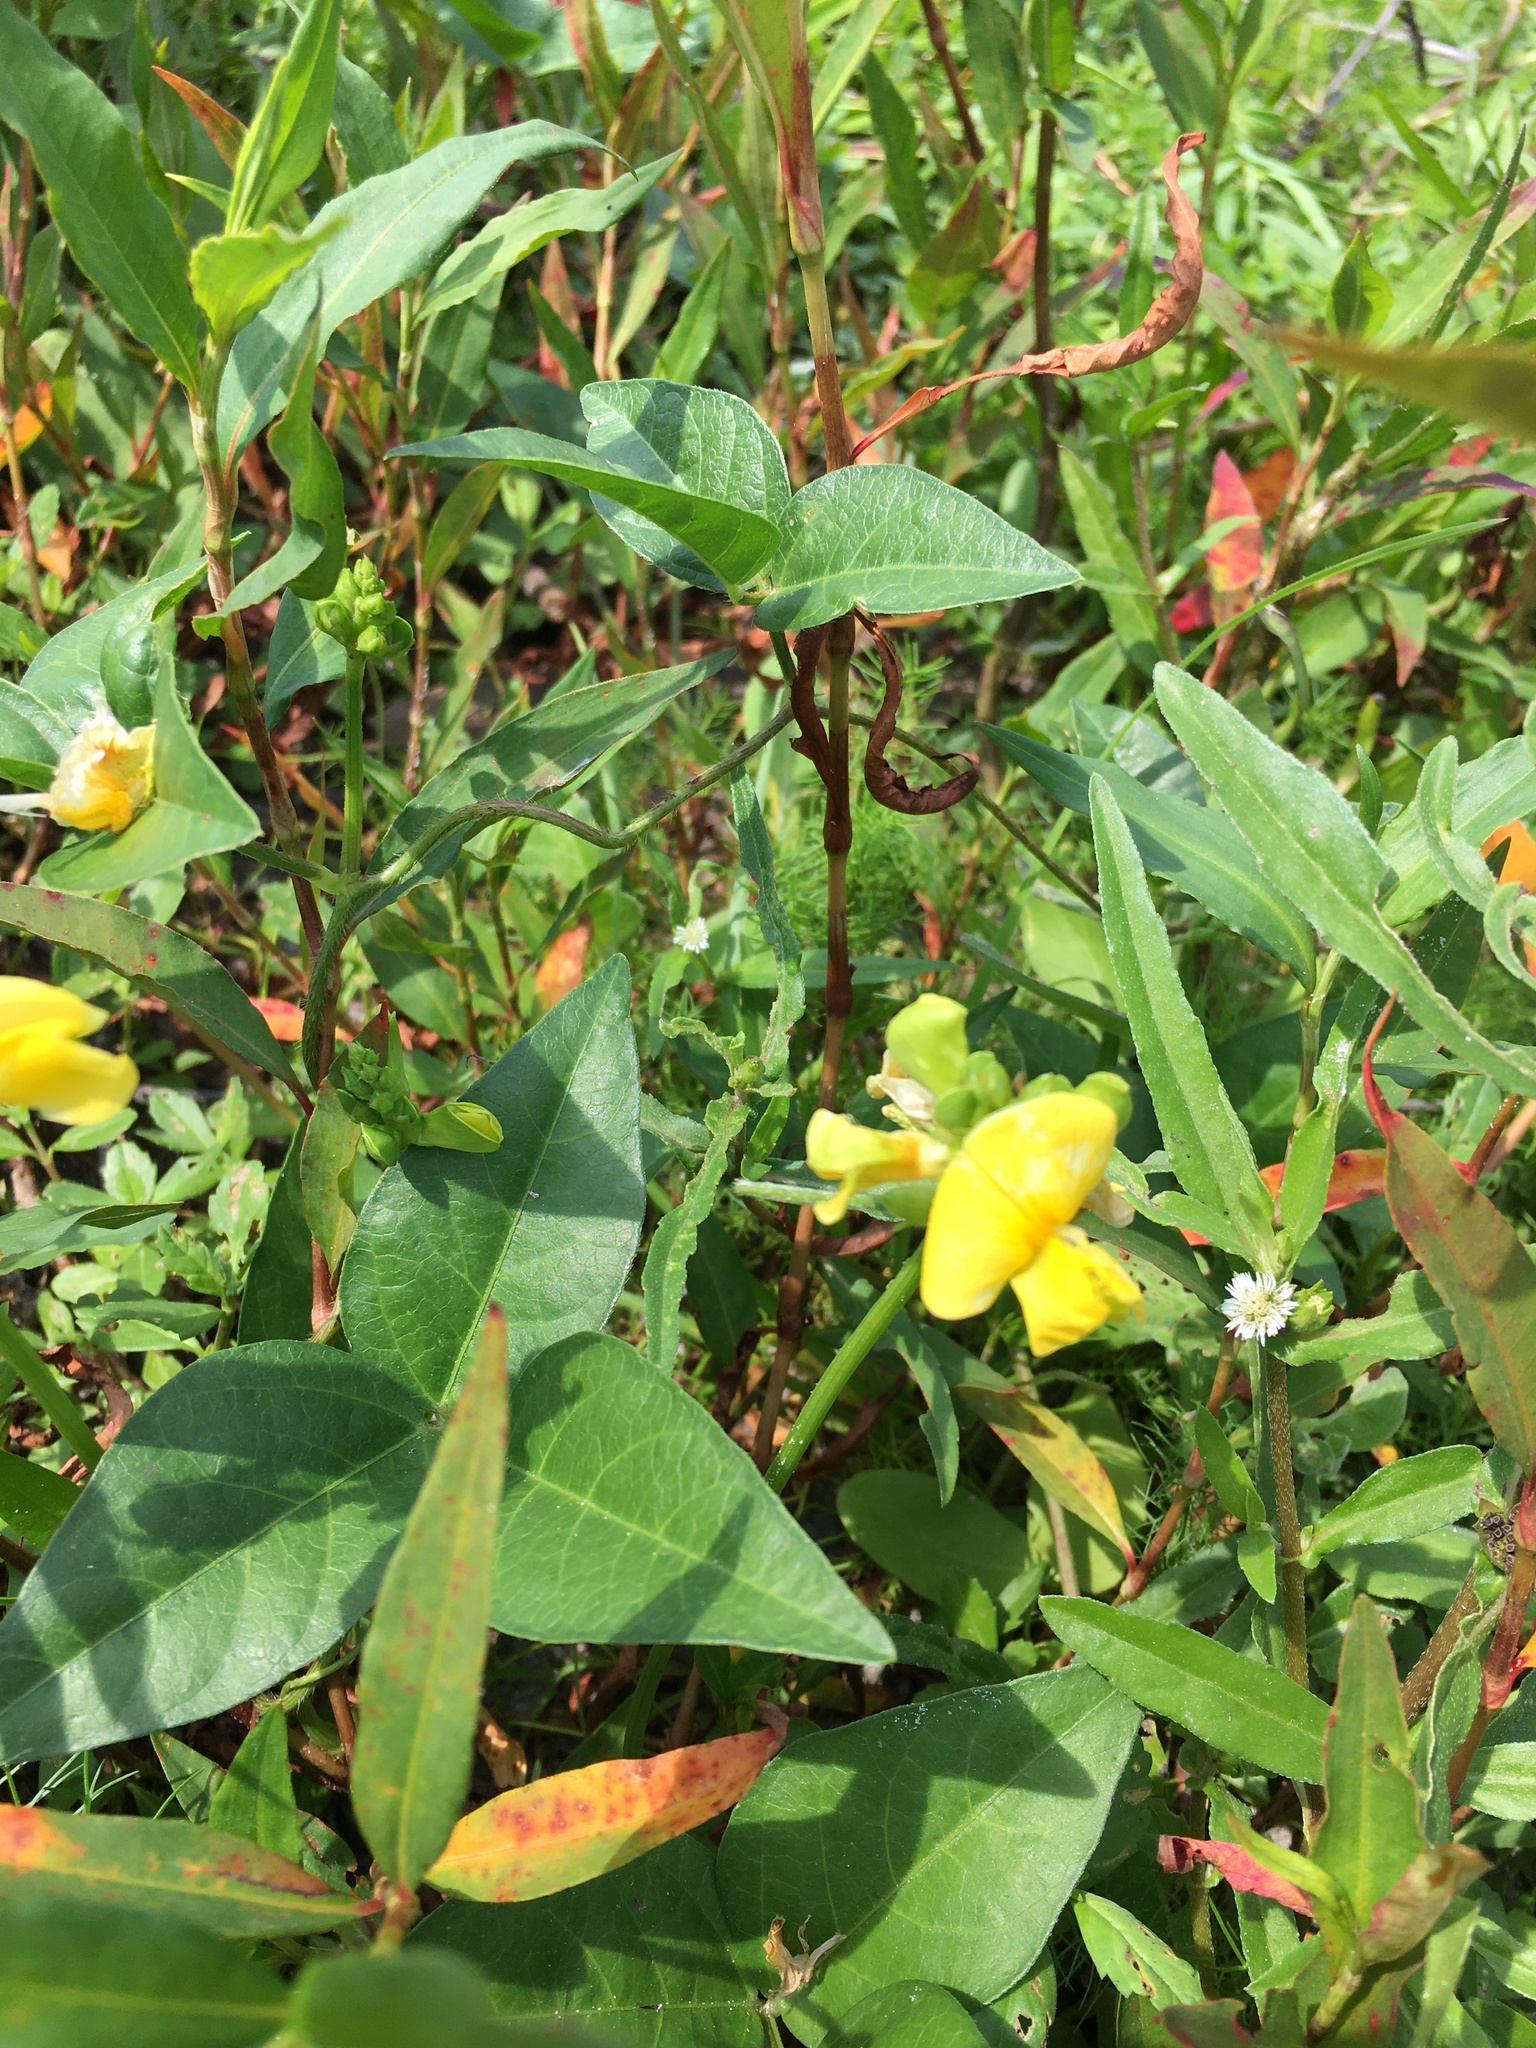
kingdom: Plantae
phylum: Tracheophyta
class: Magnoliopsida
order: Fabales
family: Fabaceae
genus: Vigna
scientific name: Vigna luteola
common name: Hairypod cowpea
